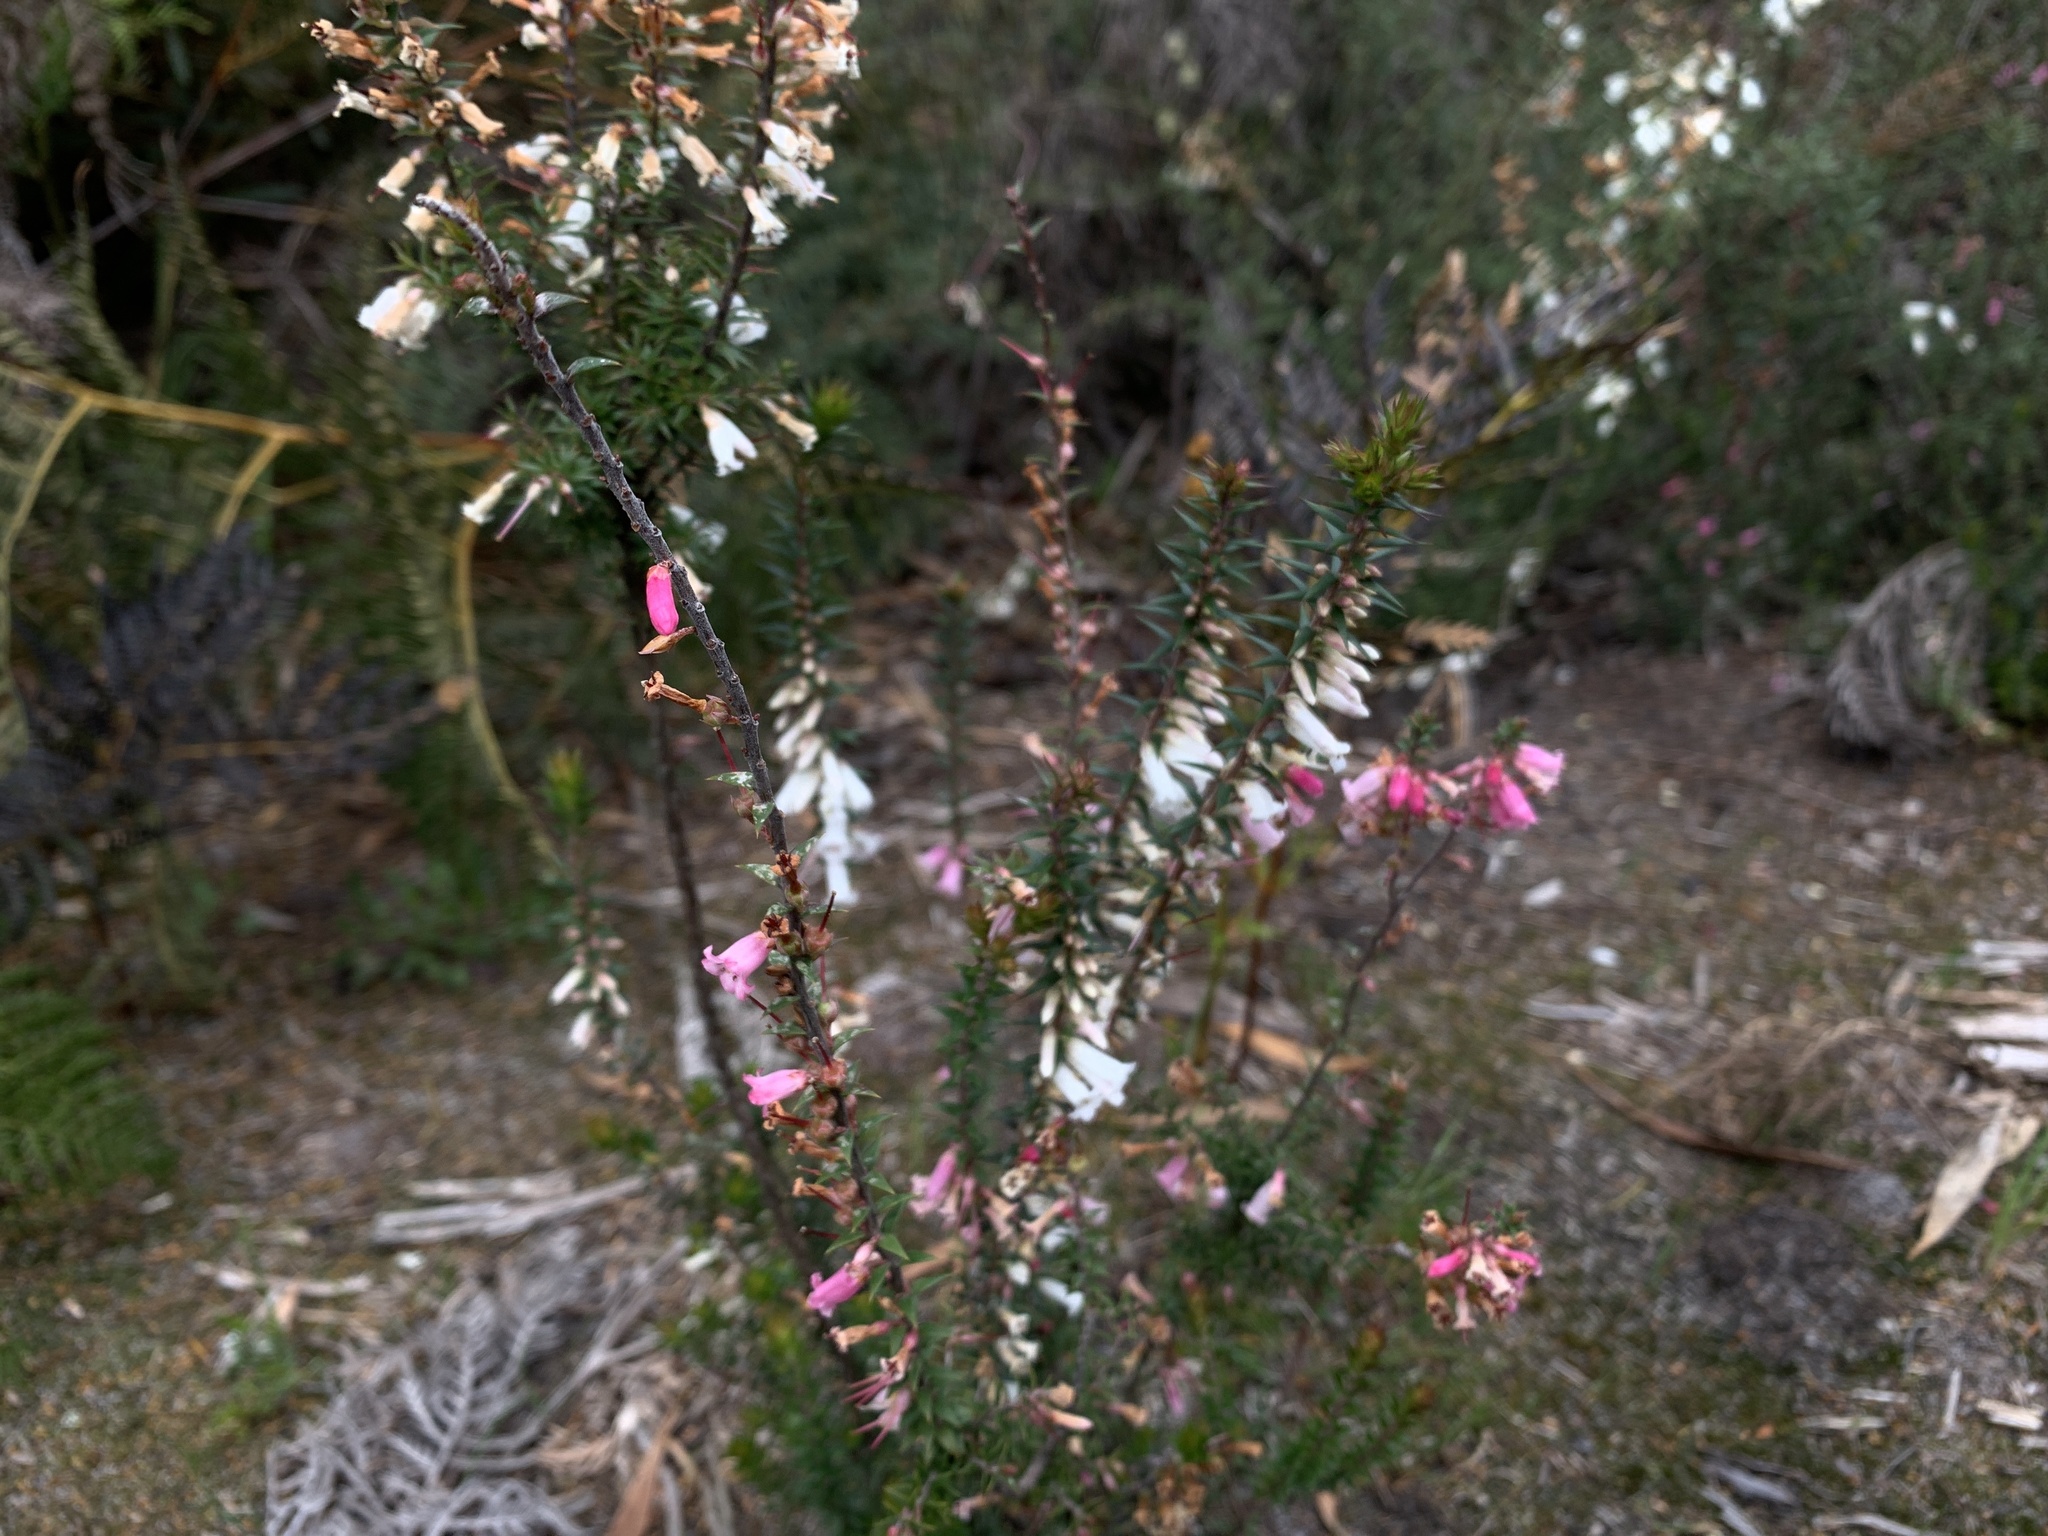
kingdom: Plantae
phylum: Tracheophyta
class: Magnoliopsida
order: Ericales
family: Ericaceae
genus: Epacris
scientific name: Epacris impressa
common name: Common-heath
